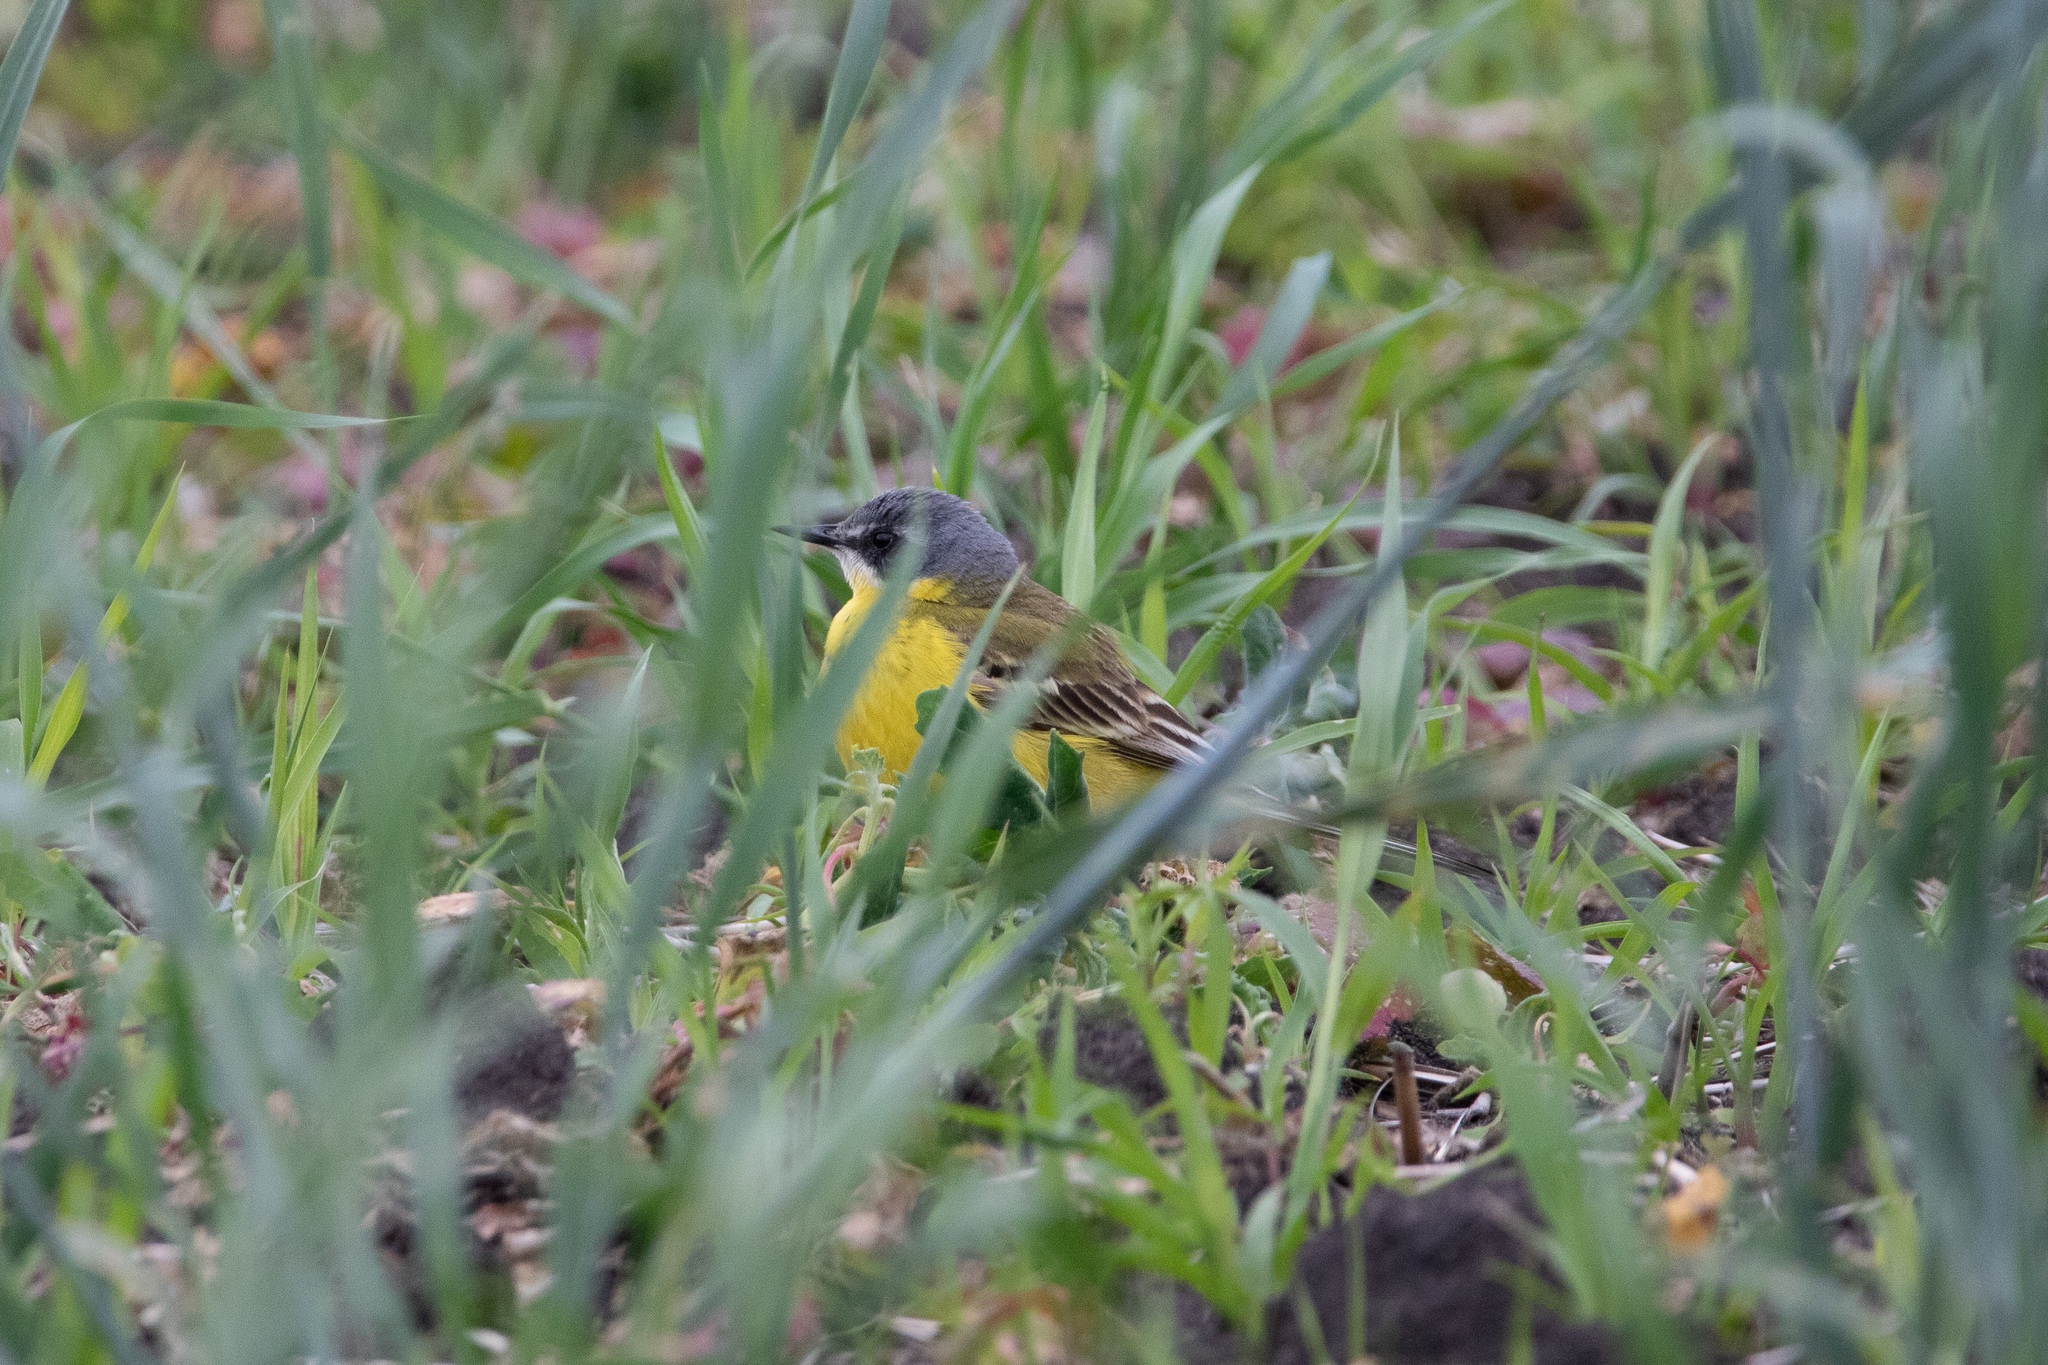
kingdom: Animalia
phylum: Chordata
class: Aves
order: Passeriformes
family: Motacillidae
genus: Motacilla
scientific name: Motacilla flava
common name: Western yellow wagtail
